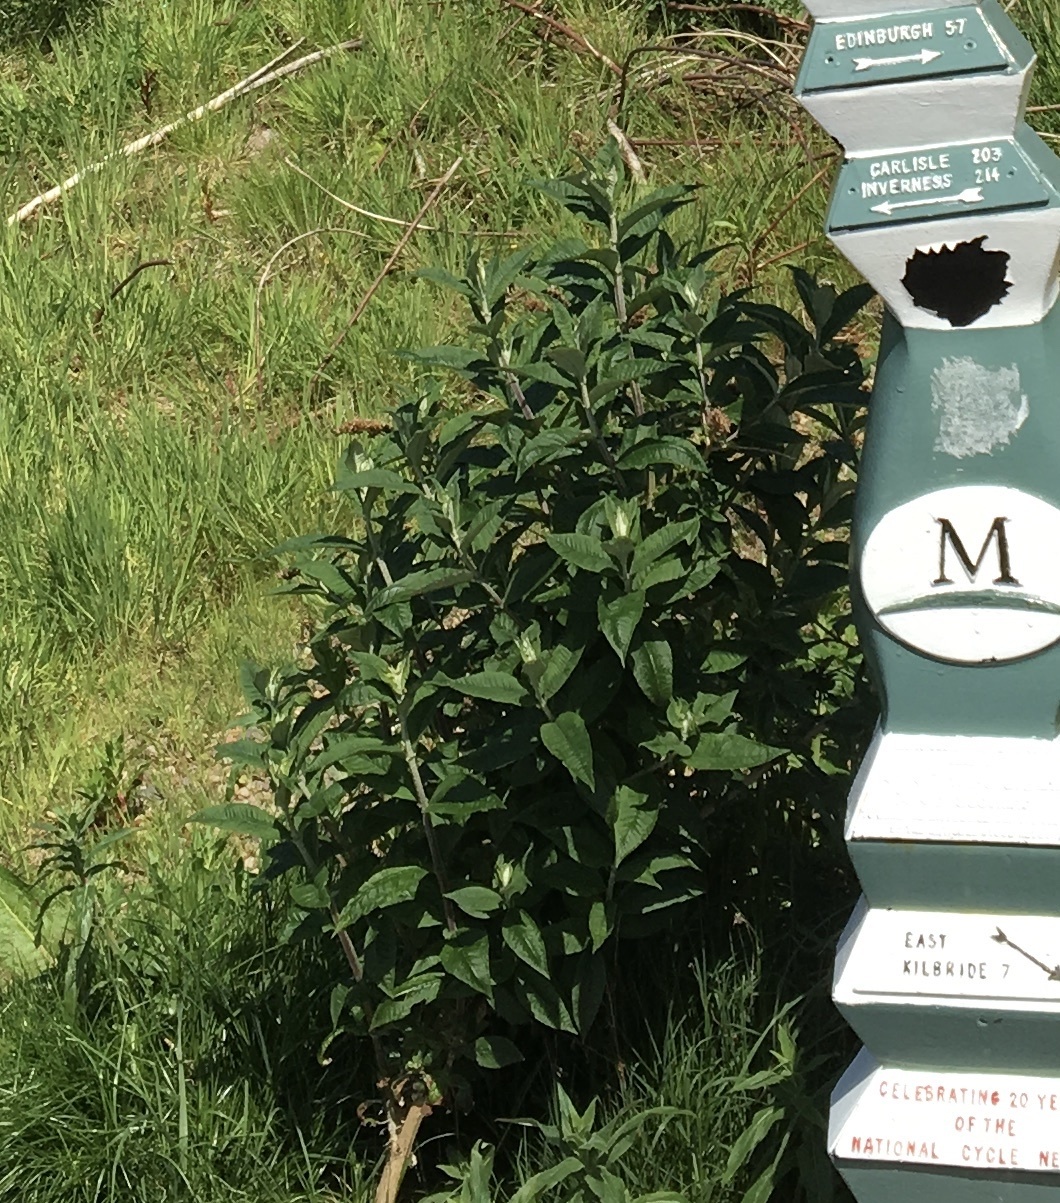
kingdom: Plantae
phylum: Tracheophyta
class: Magnoliopsida
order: Lamiales
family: Scrophulariaceae
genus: Buddleja
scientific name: Buddleja davidii
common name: Butterfly-bush
